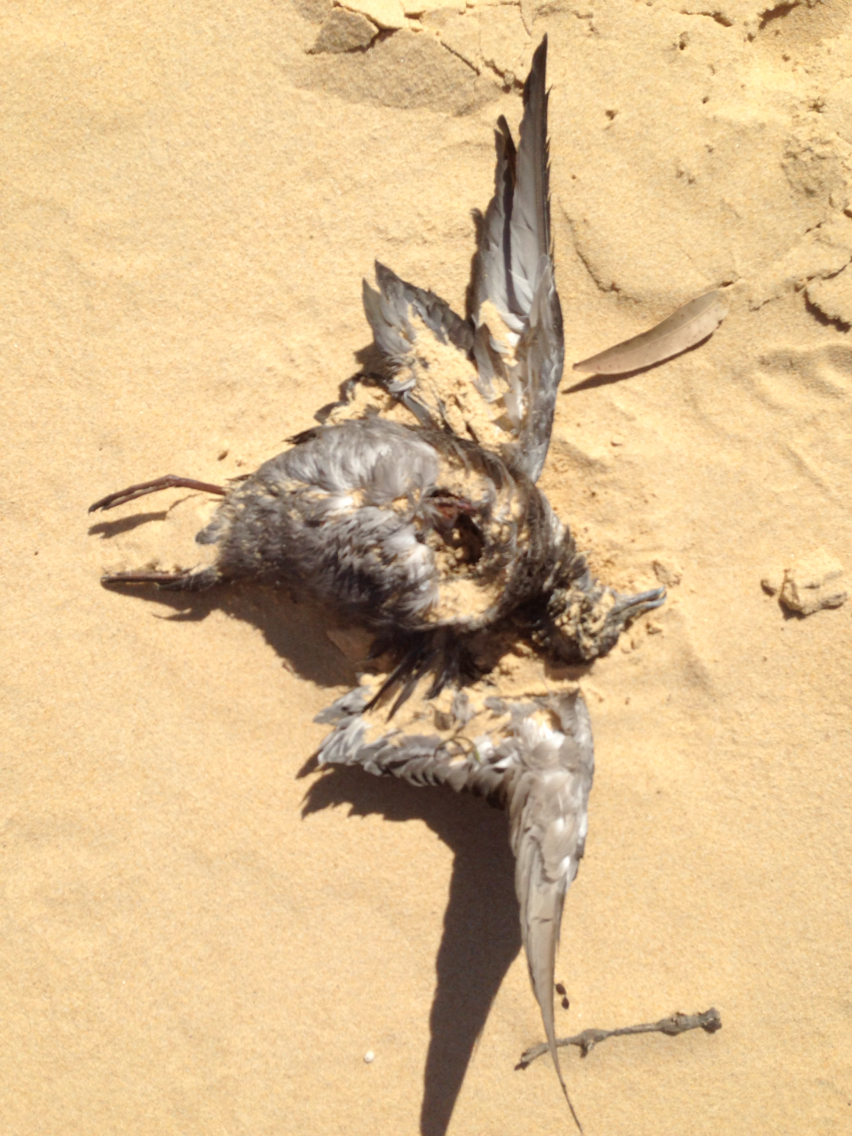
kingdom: Animalia
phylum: Chordata
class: Aves
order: Procellariiformes
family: Procellariidae
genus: Ardenna
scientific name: Ardenna
